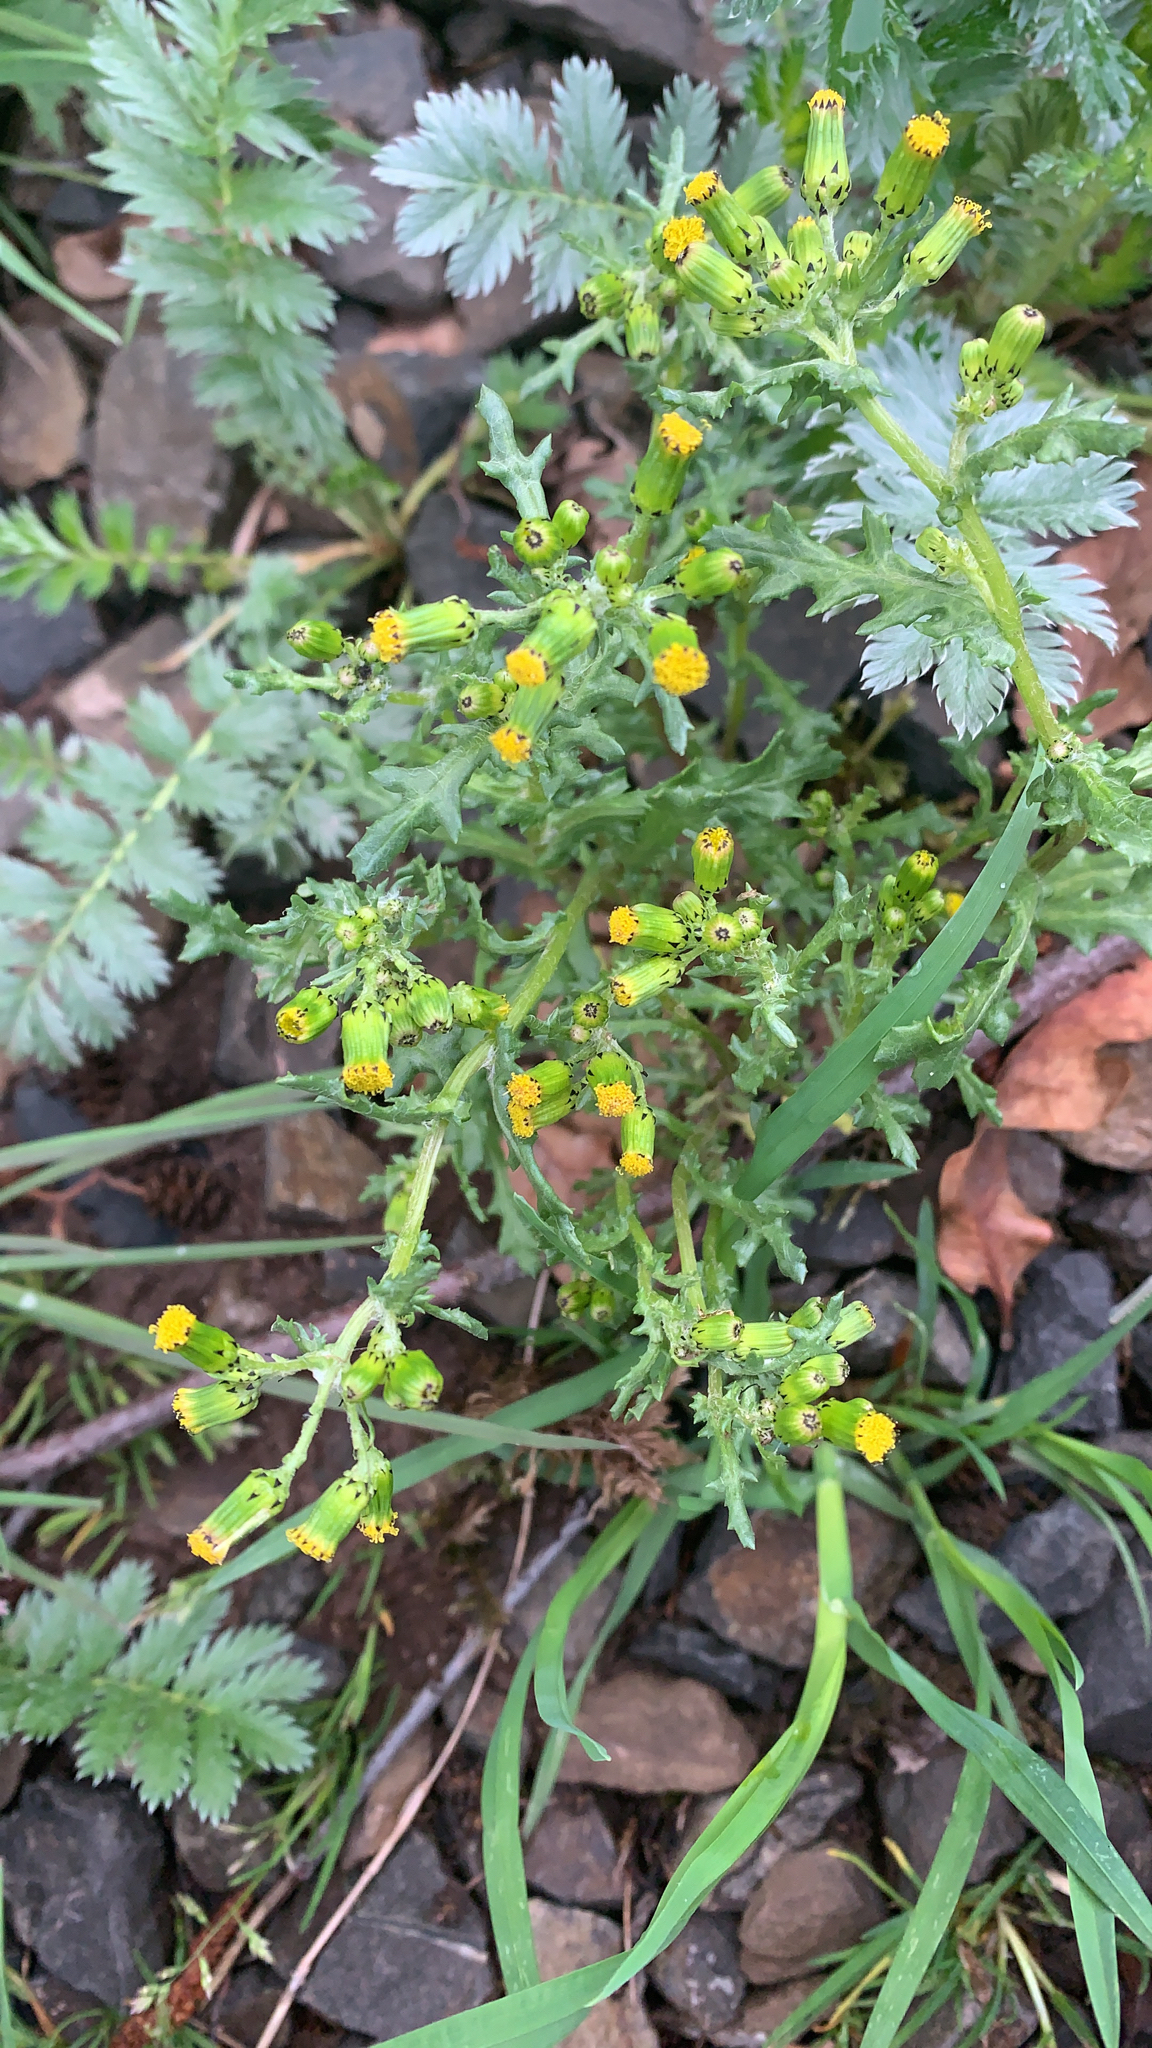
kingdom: Plantae
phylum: Tracheophyta
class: Magnoliopsida
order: Asterales
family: Asteraceae
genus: Senecio
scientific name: Senecio vulgaris
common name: Old-man-in-the-spring
